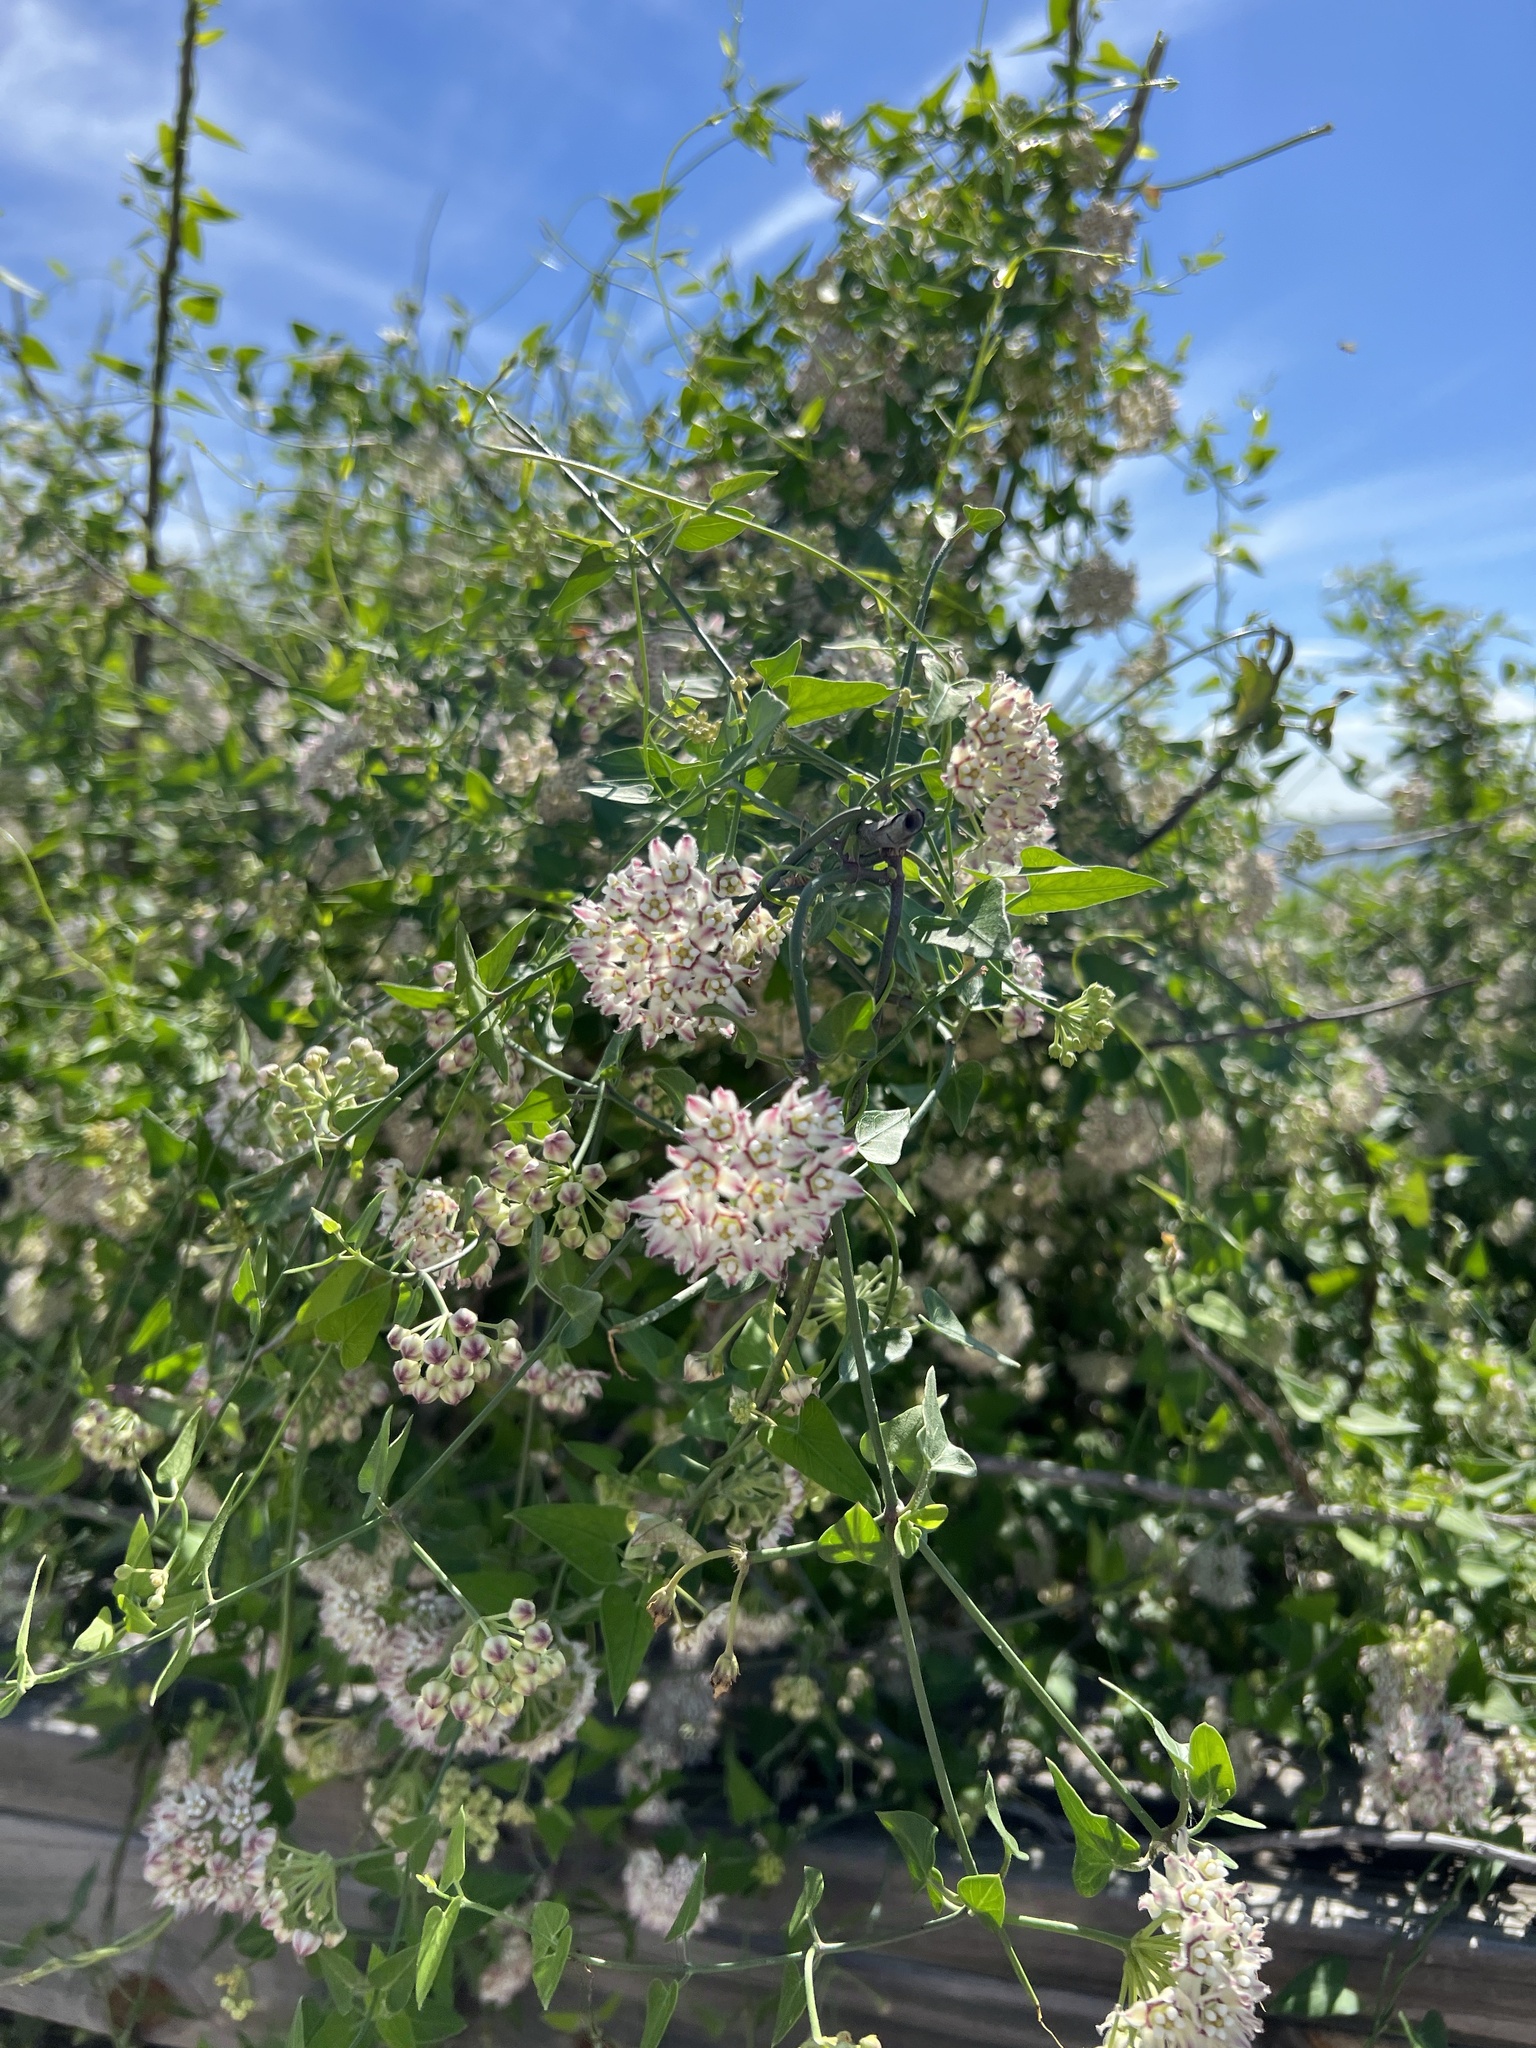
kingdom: Plantae
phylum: Tracheophyta
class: Magnoliopsida
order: Gentianales
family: Apocynaceae
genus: Funastrum
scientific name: Funastrum cynanchoides
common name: Climbing-milkweed
